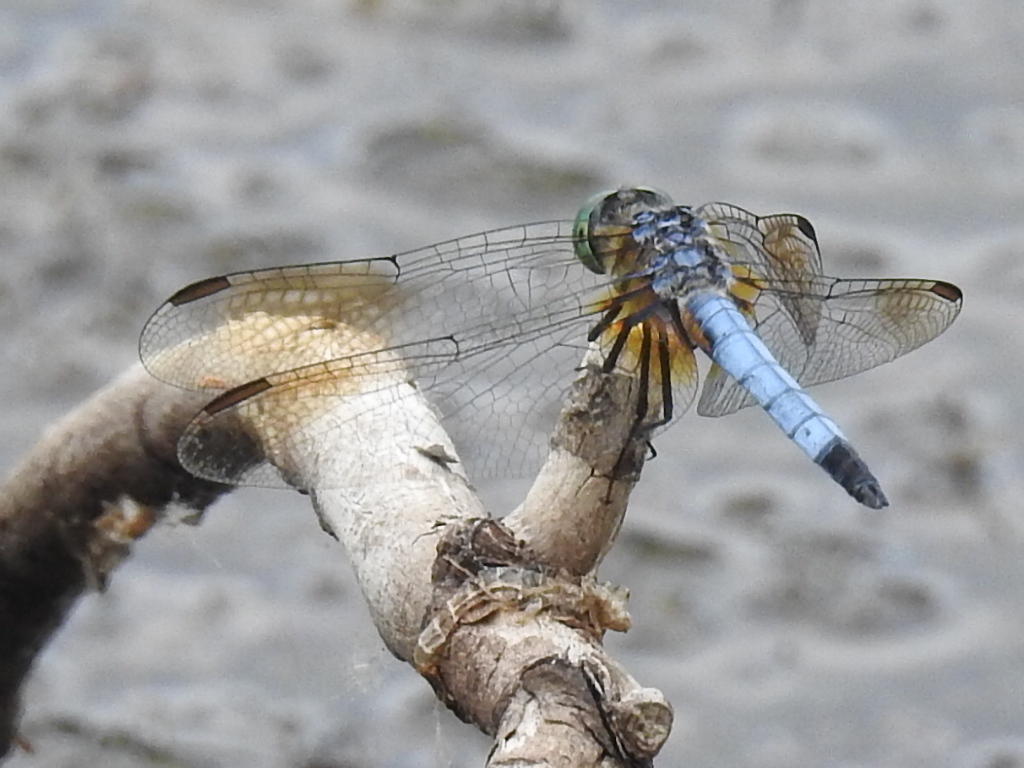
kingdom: Animalia
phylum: Arthropoda
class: Insecta
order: Odonata
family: Libellulidae
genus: Pachydiplax
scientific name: Pachydiplax longipennis
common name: Blue dasher
